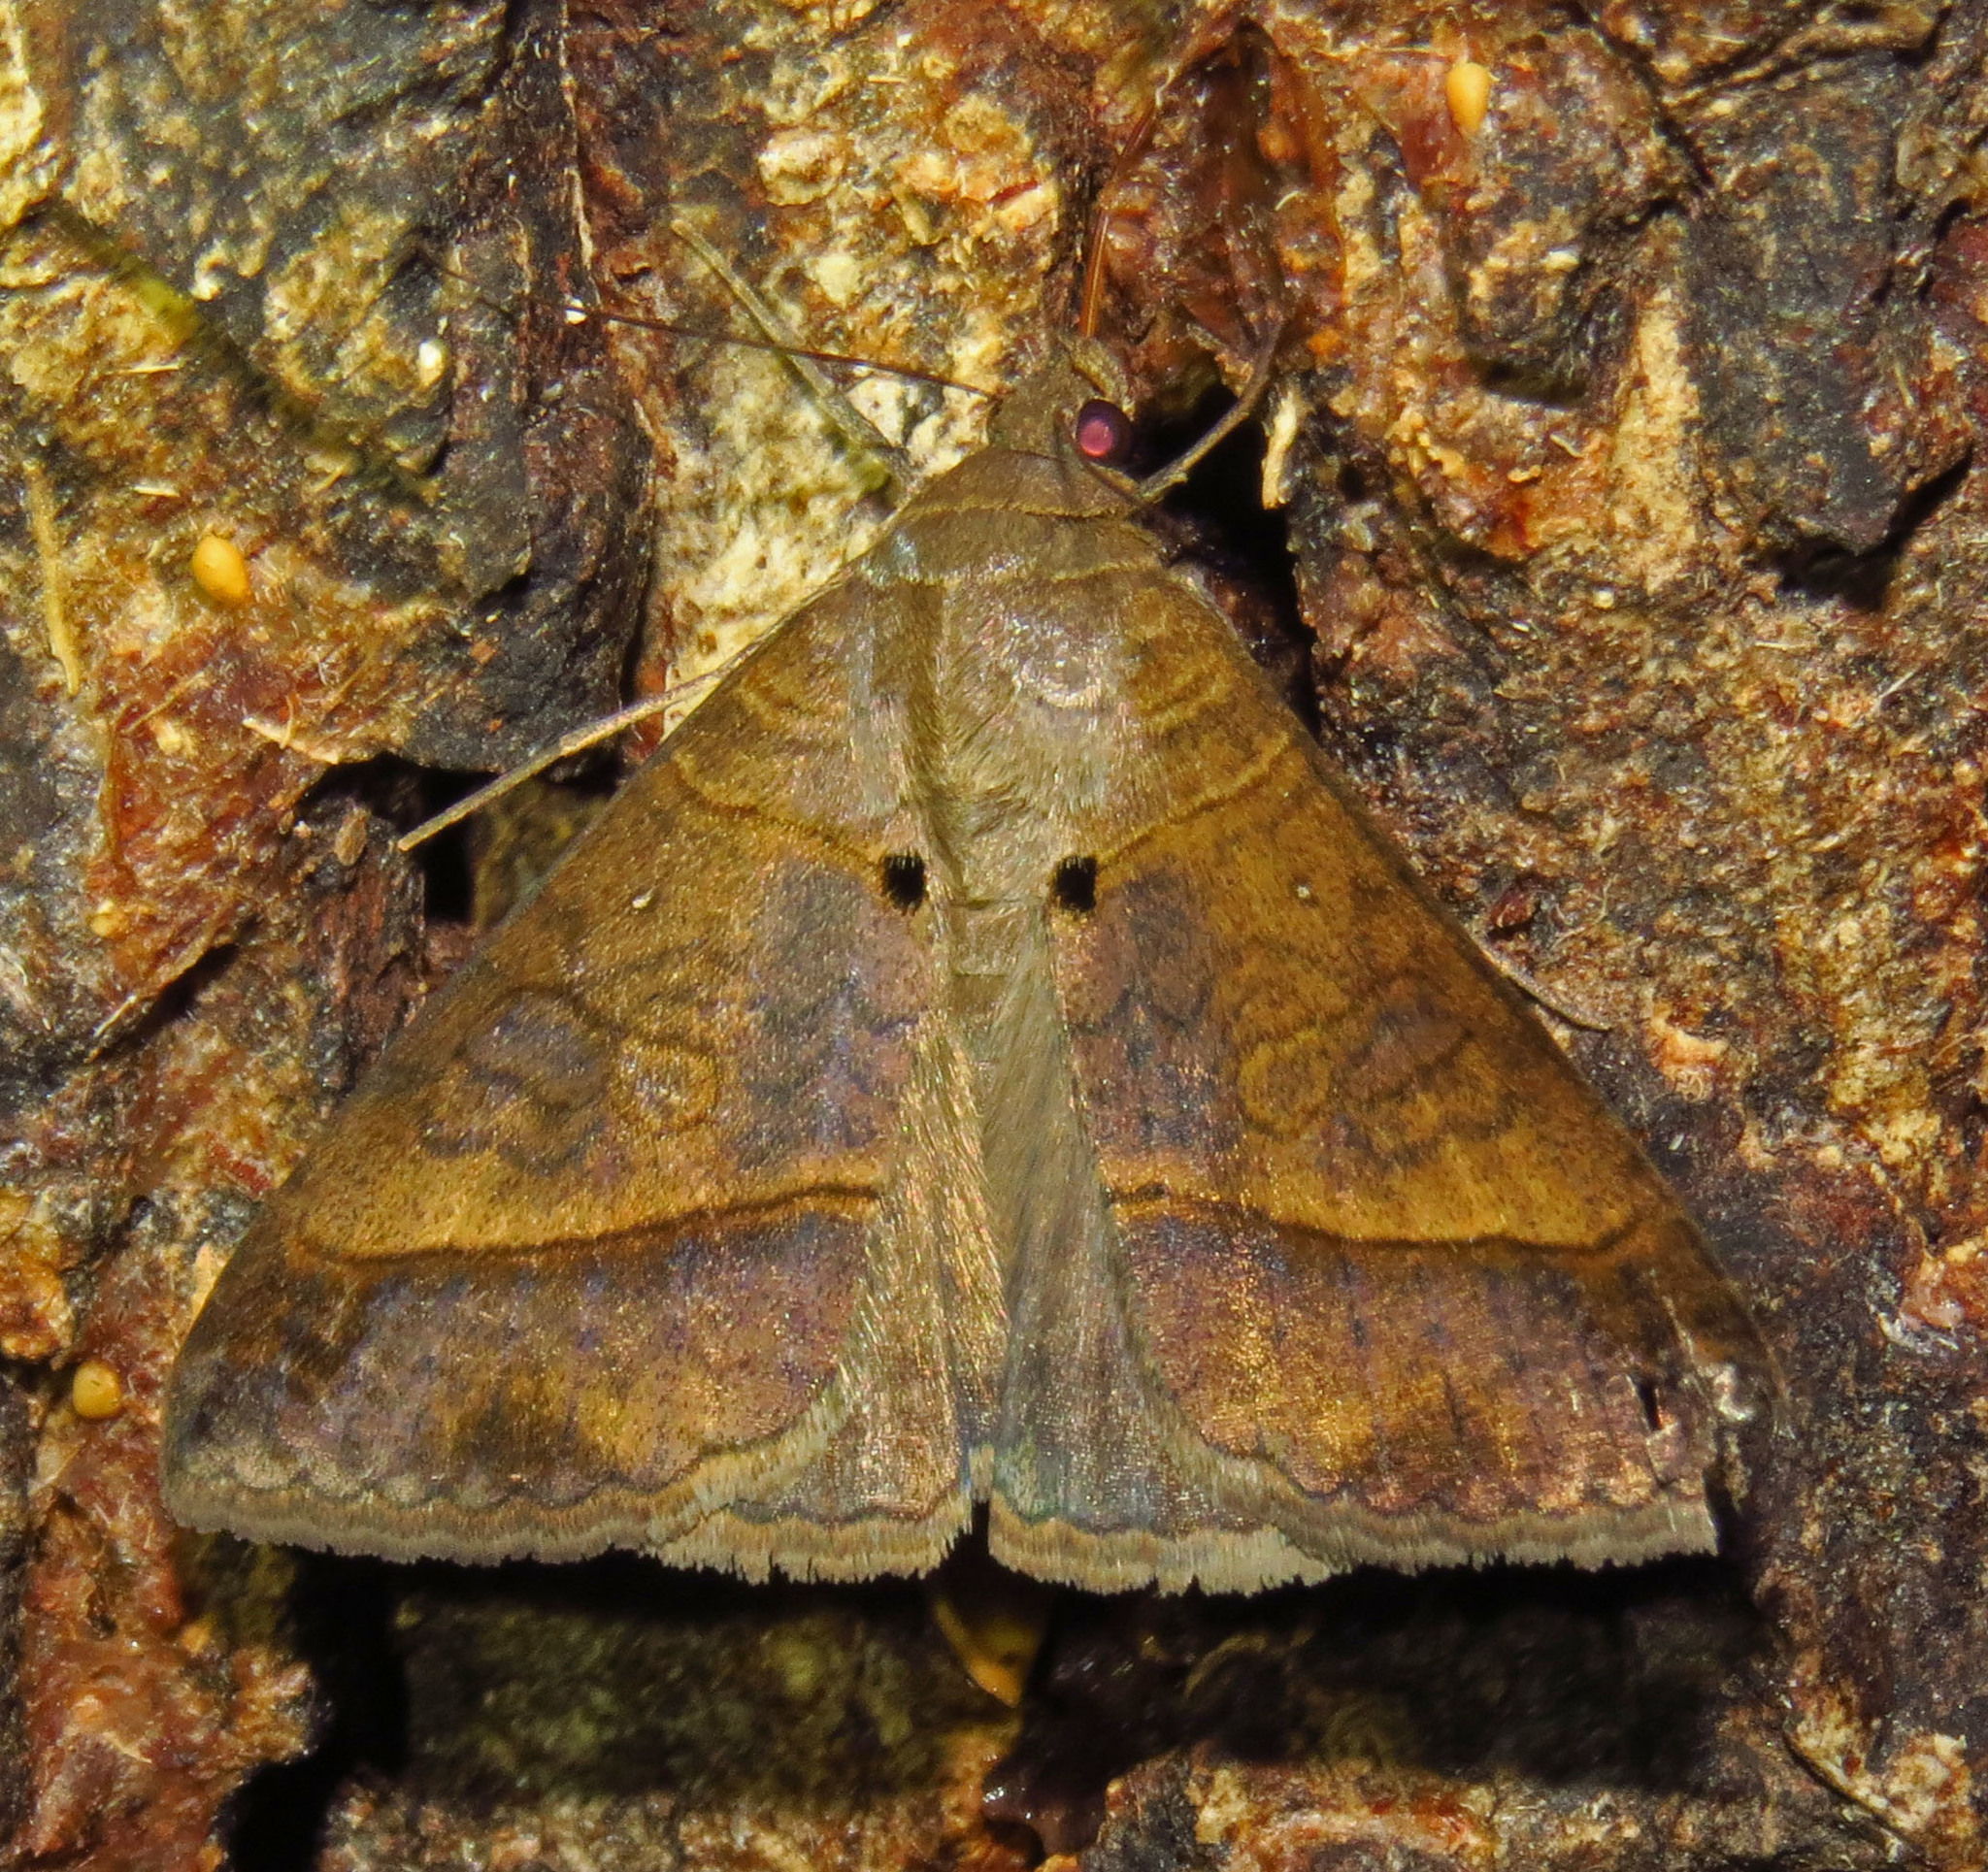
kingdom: Animalia
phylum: Arthropoda
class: Insecta
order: Lepidoptera
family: Erebidae
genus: Mocis
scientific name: Mocis latipes
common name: Striped grass looper
